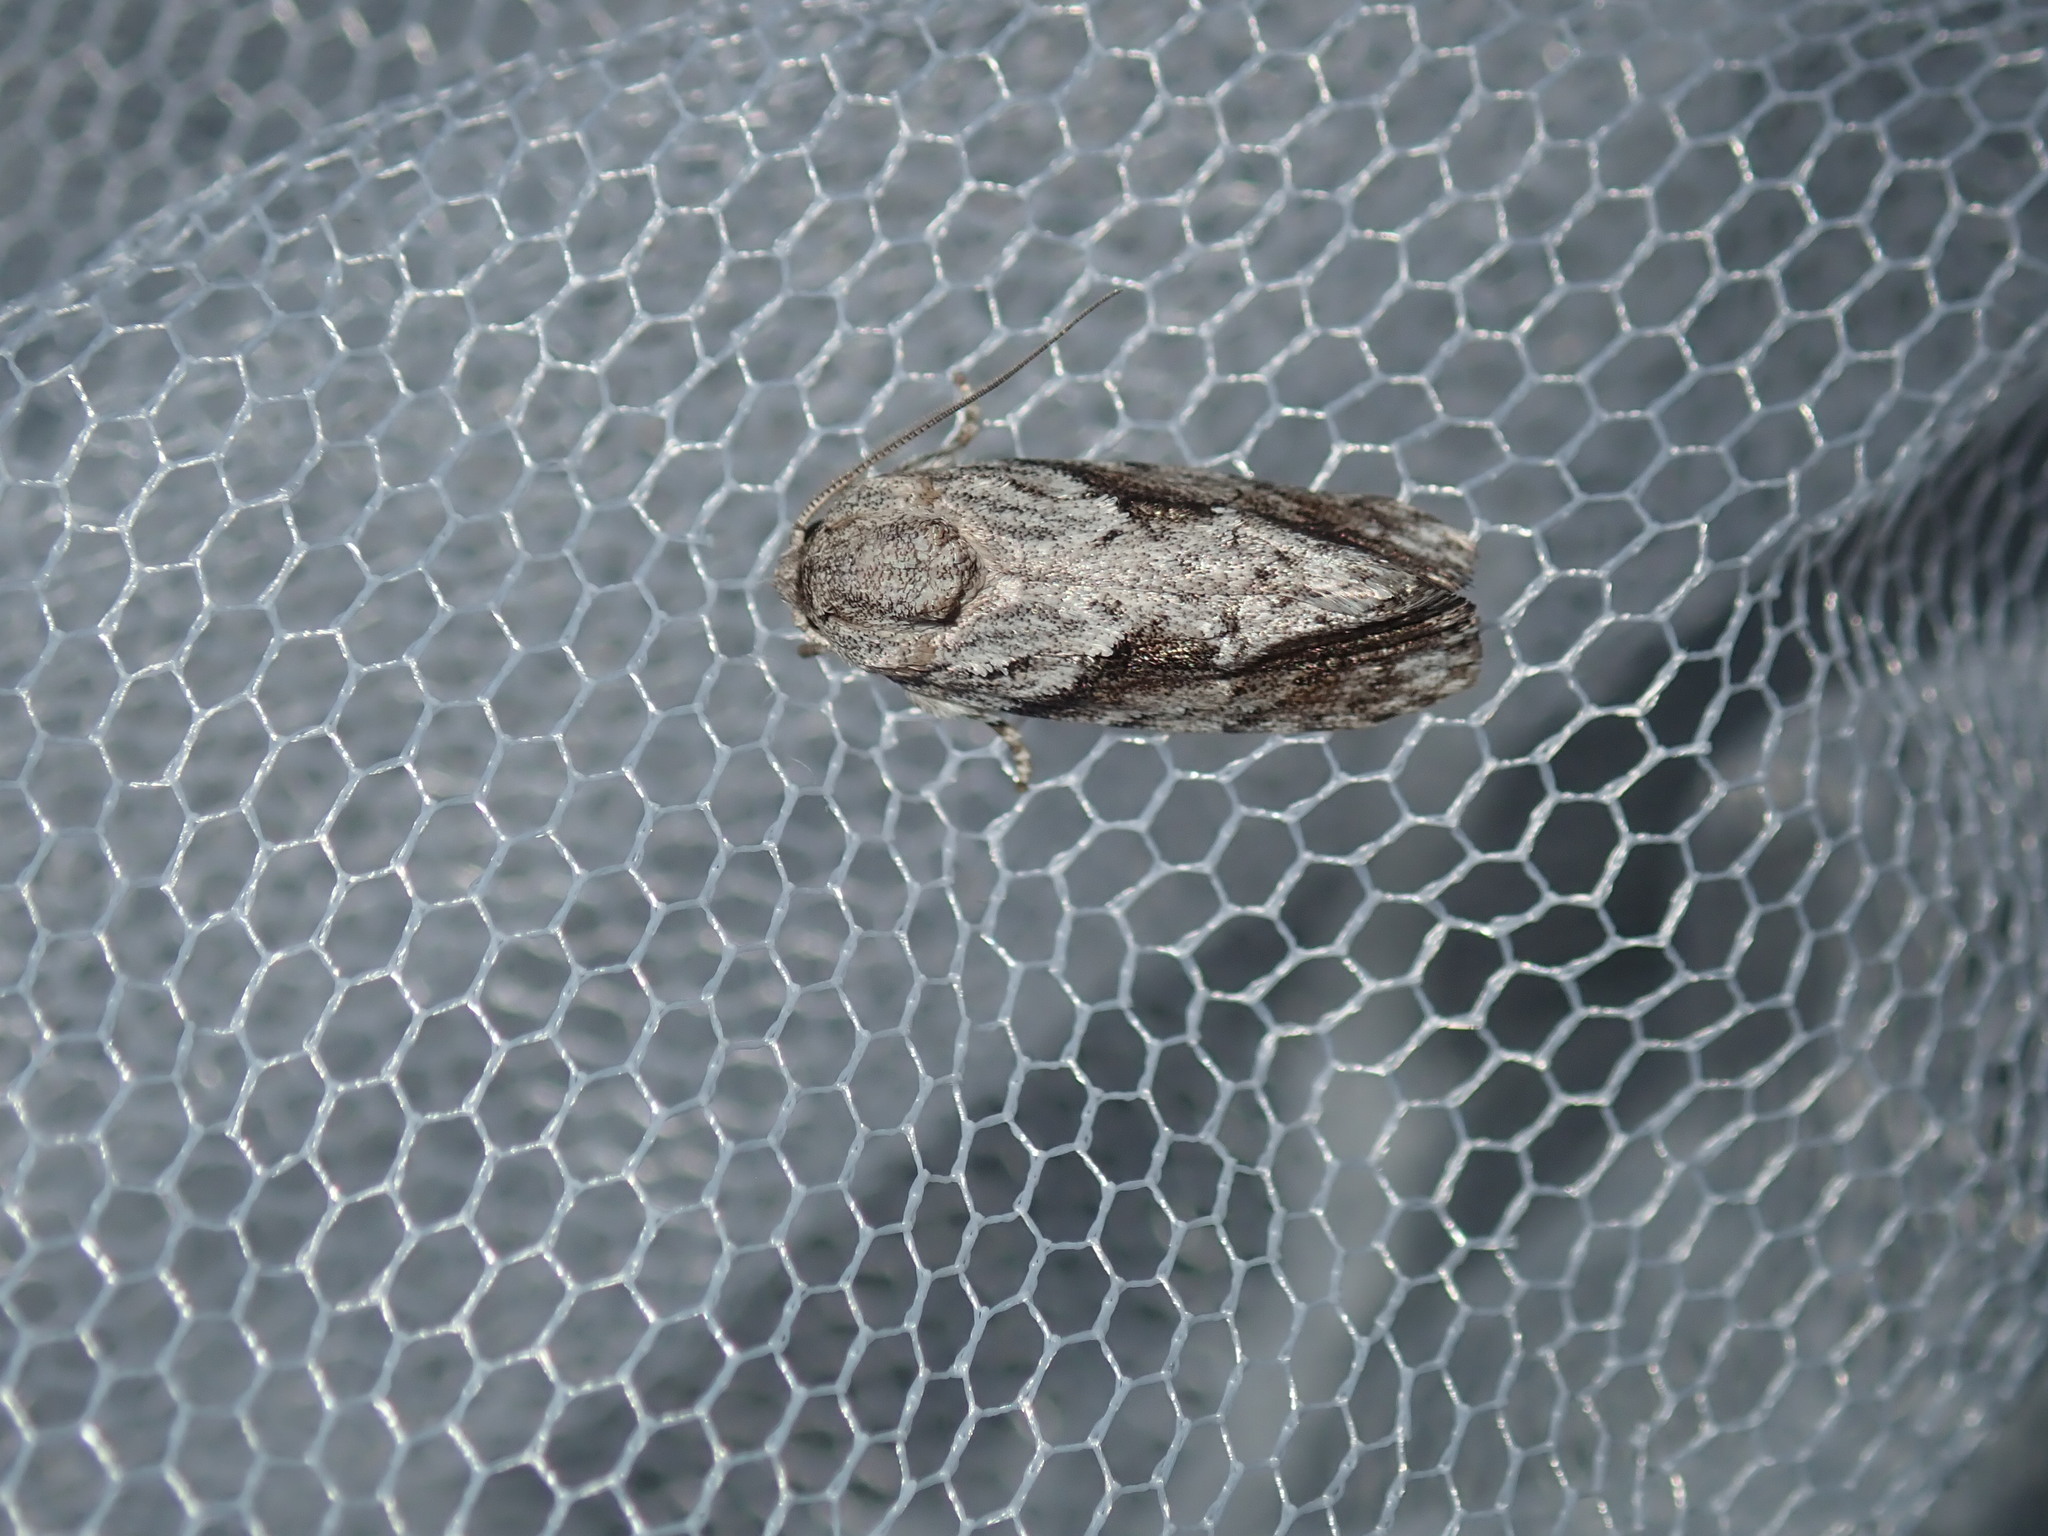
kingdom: Animalia
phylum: Arthropoda
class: Insecta
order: Lepidoptera
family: Depressariidae
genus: Agriophara
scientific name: Agriophara confertella
